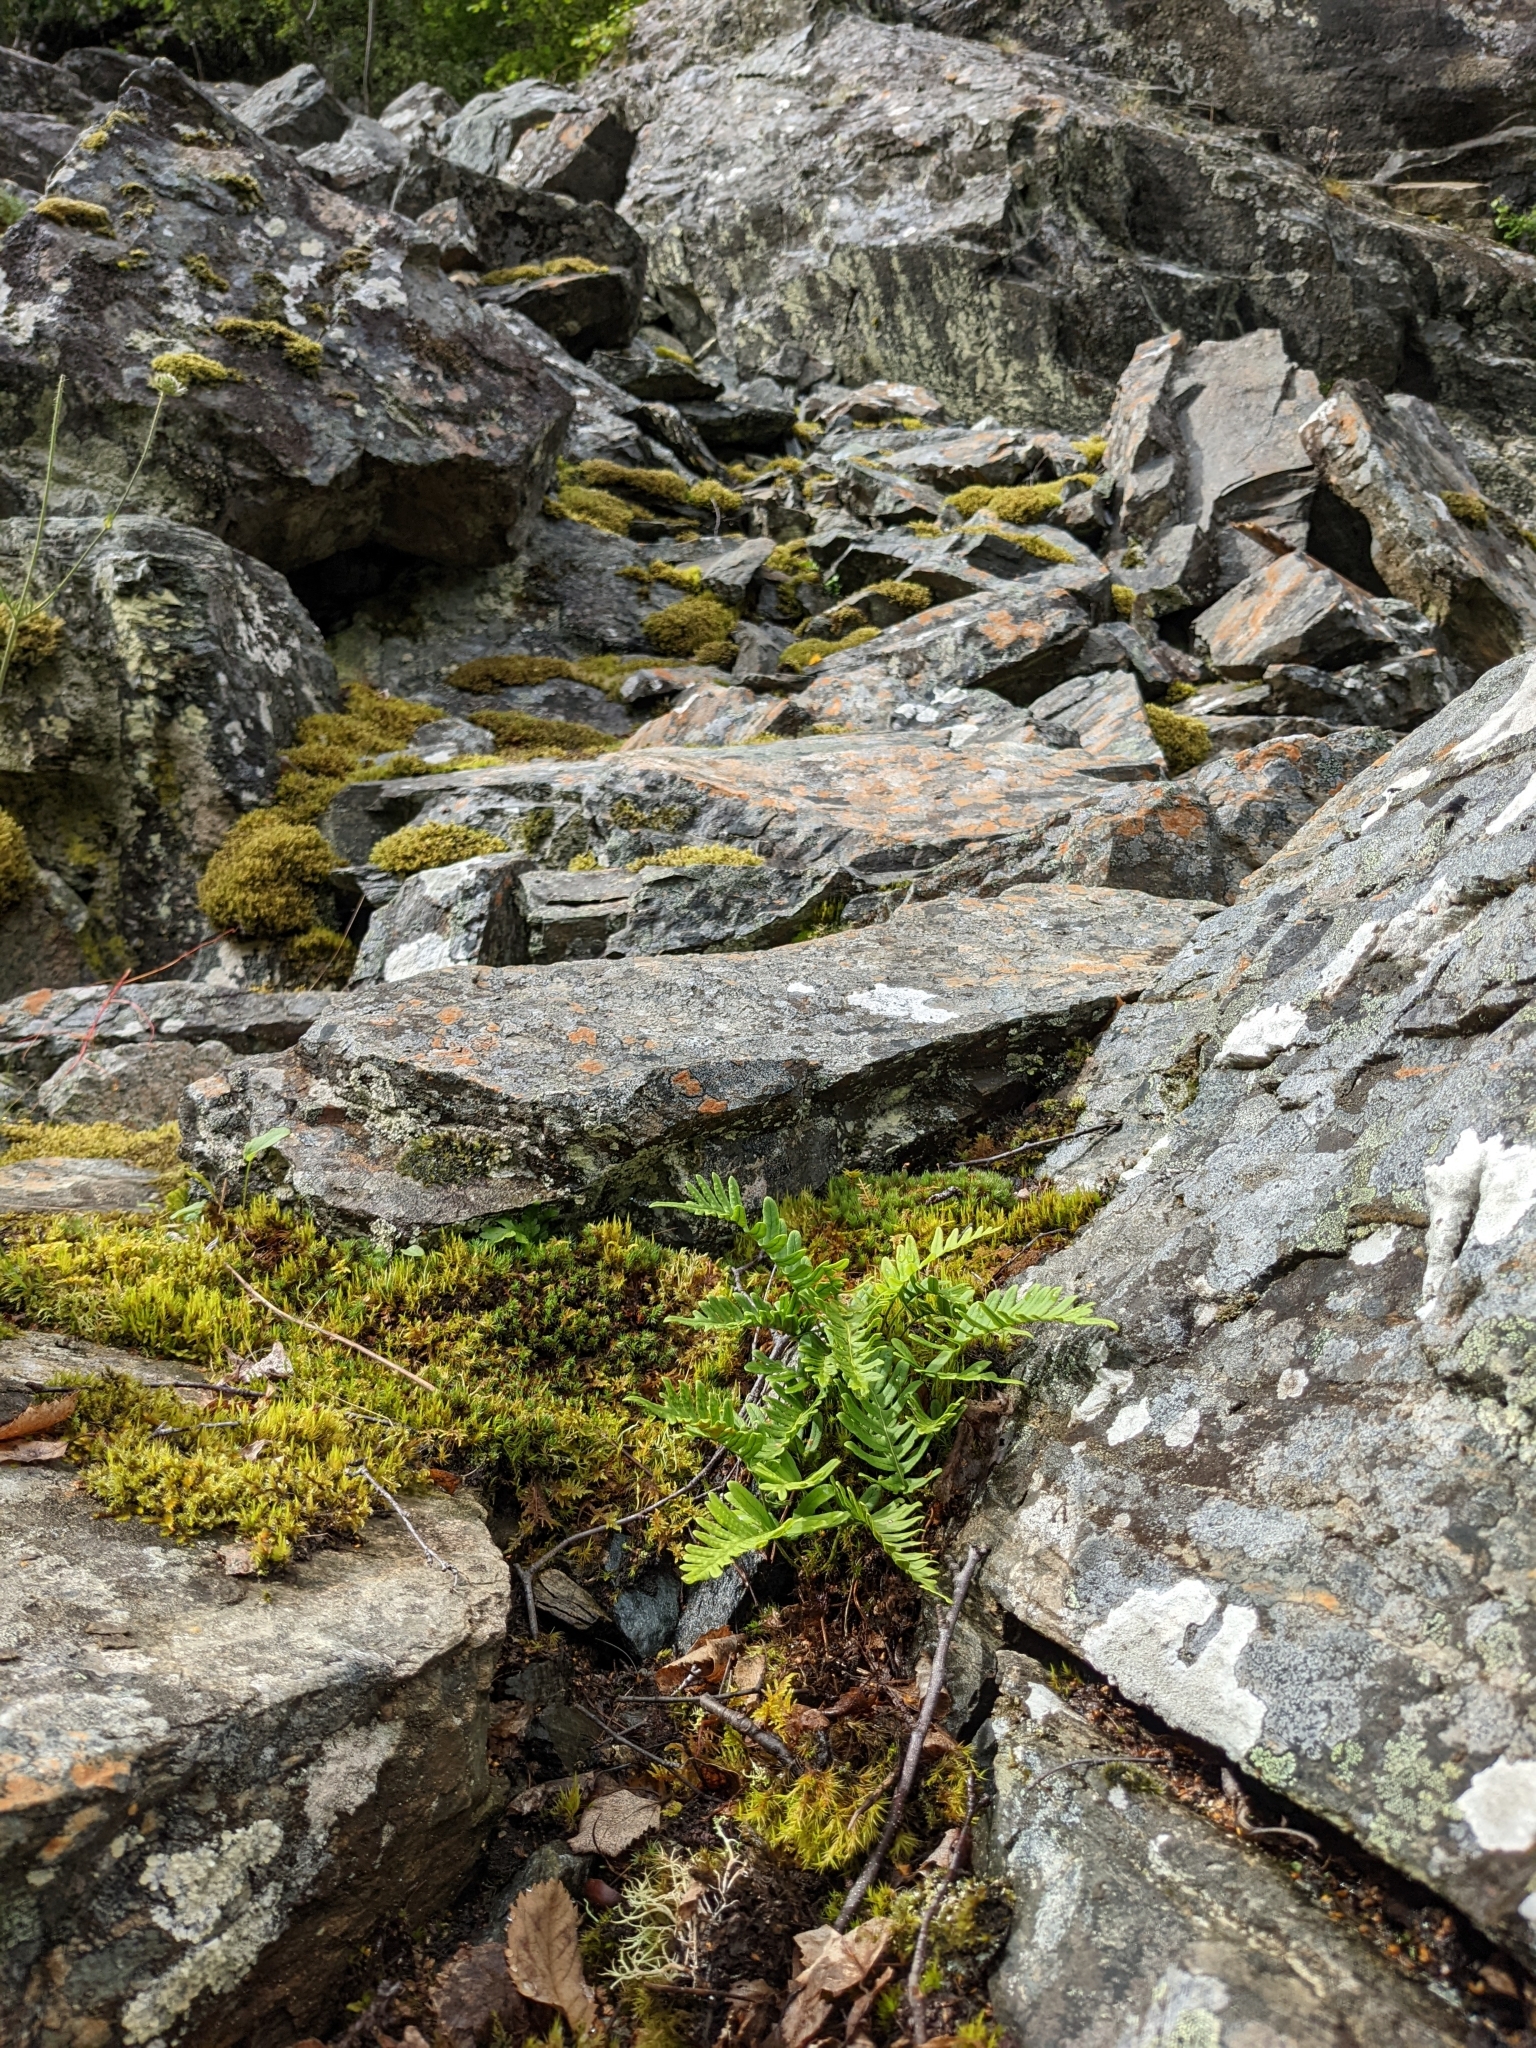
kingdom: Plantae
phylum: Tracheophyta
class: Polypodiopsida
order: Polypodiales
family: Polypodiaceae
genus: Polypodium
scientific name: Polypodium vulgare
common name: Common polypody
